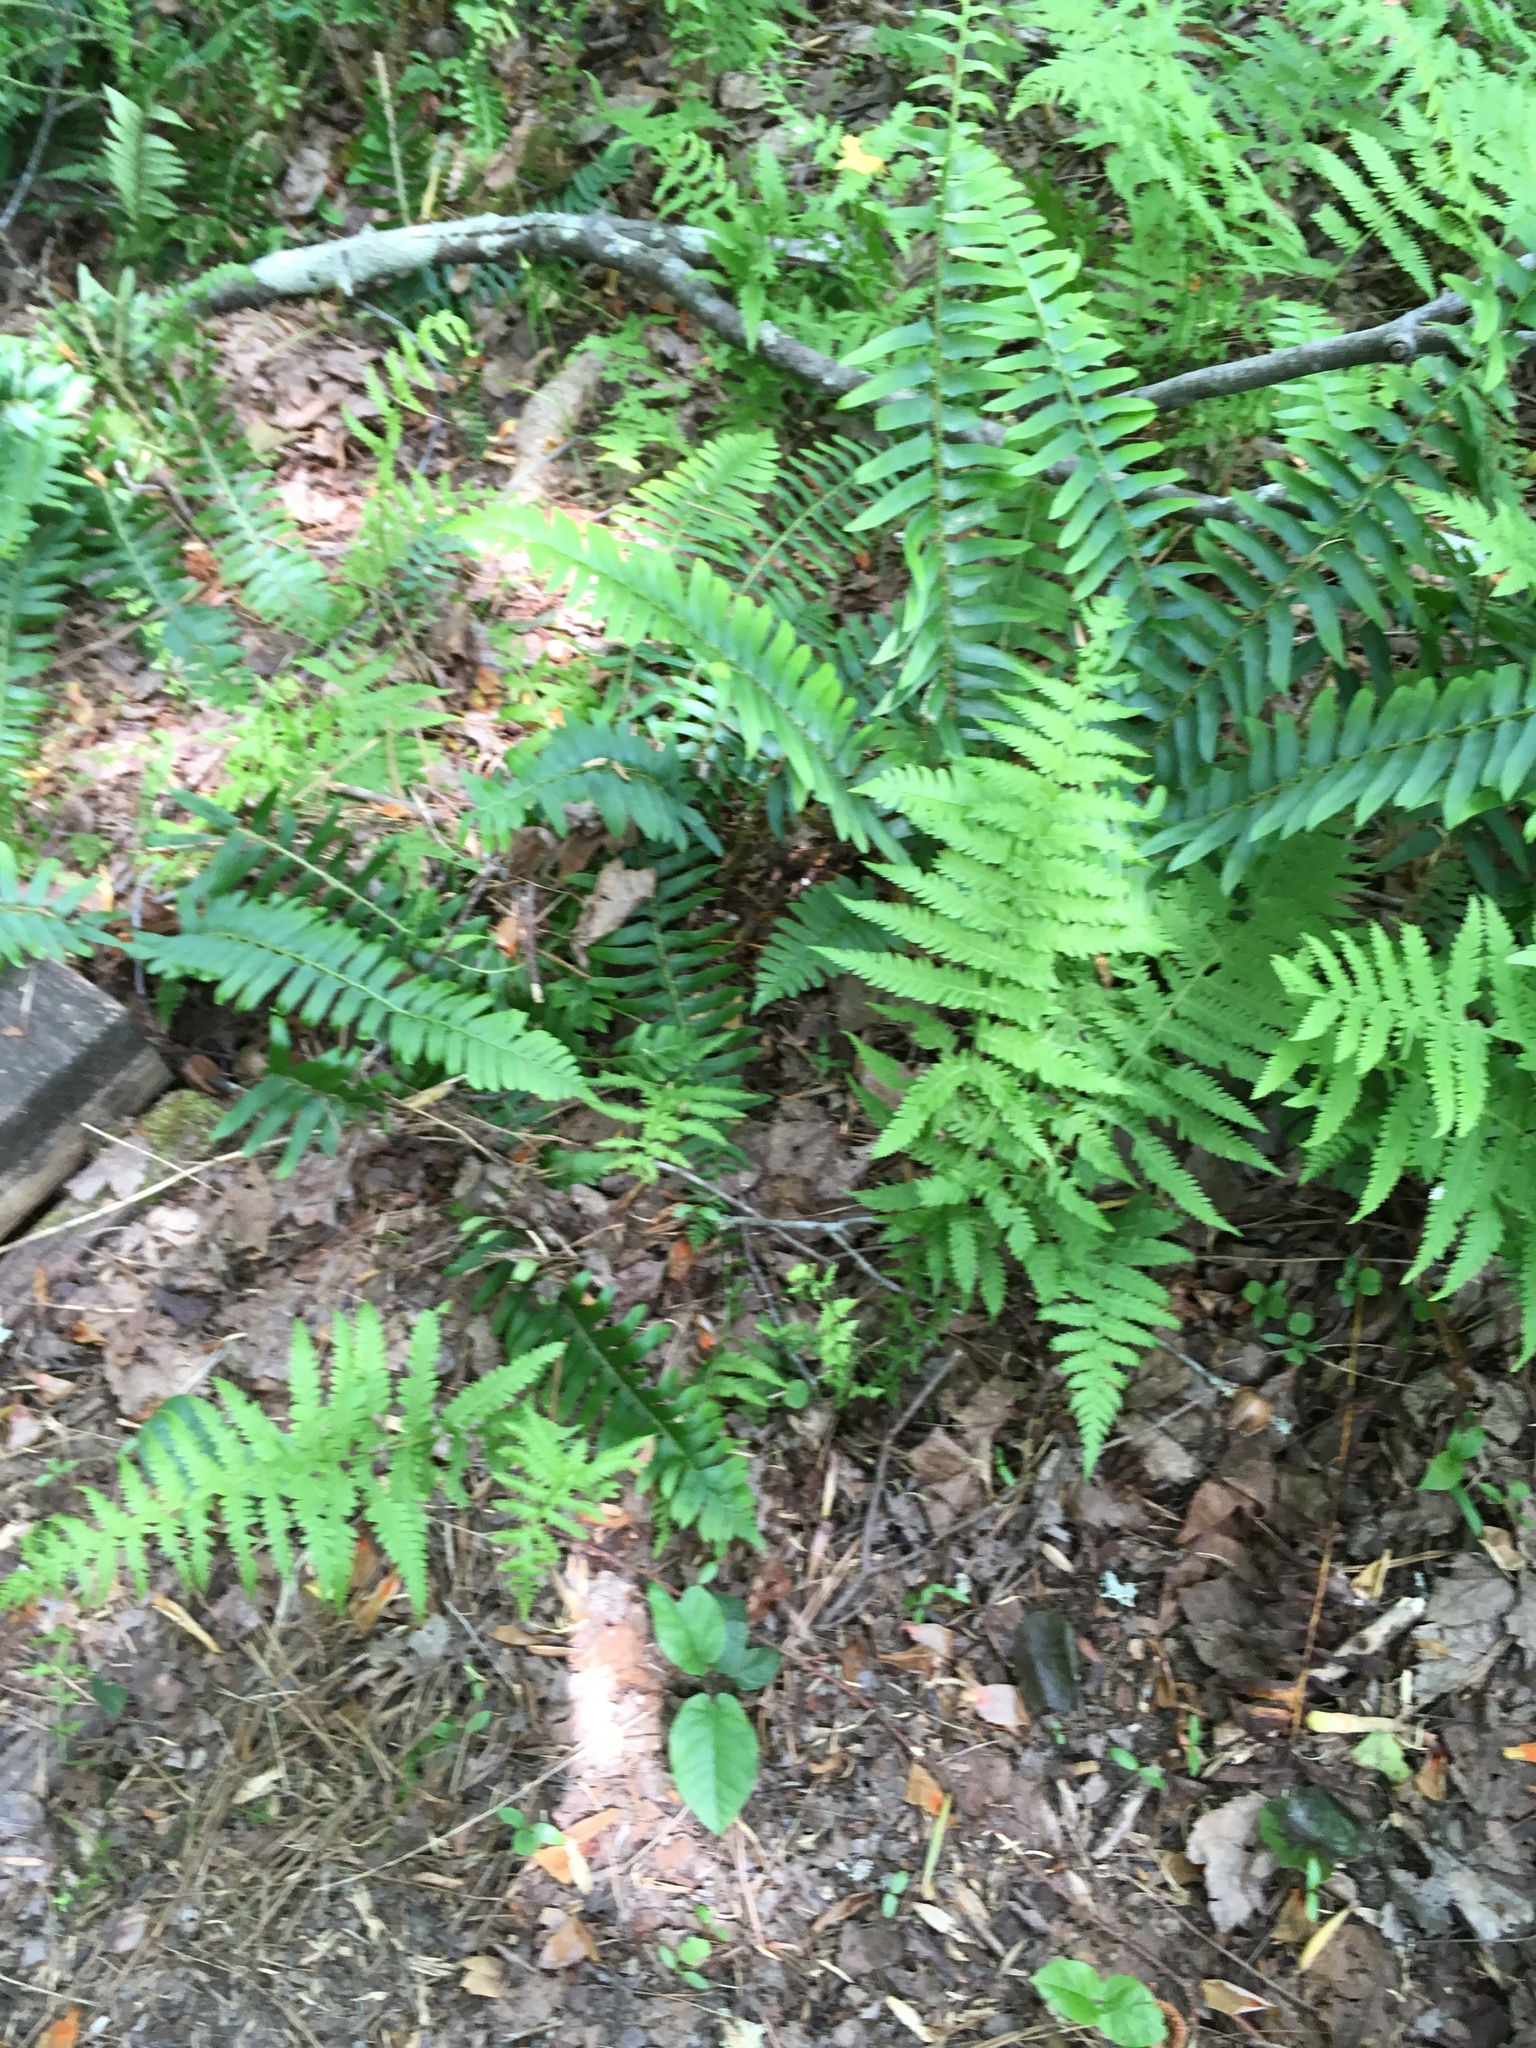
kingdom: Plantae
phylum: Tracheophyta
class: Polypodiopsida
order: Polypodiales
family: Thelypteridaceae
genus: Amauropelta
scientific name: Amauropelta noveboracensis
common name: New york fern
